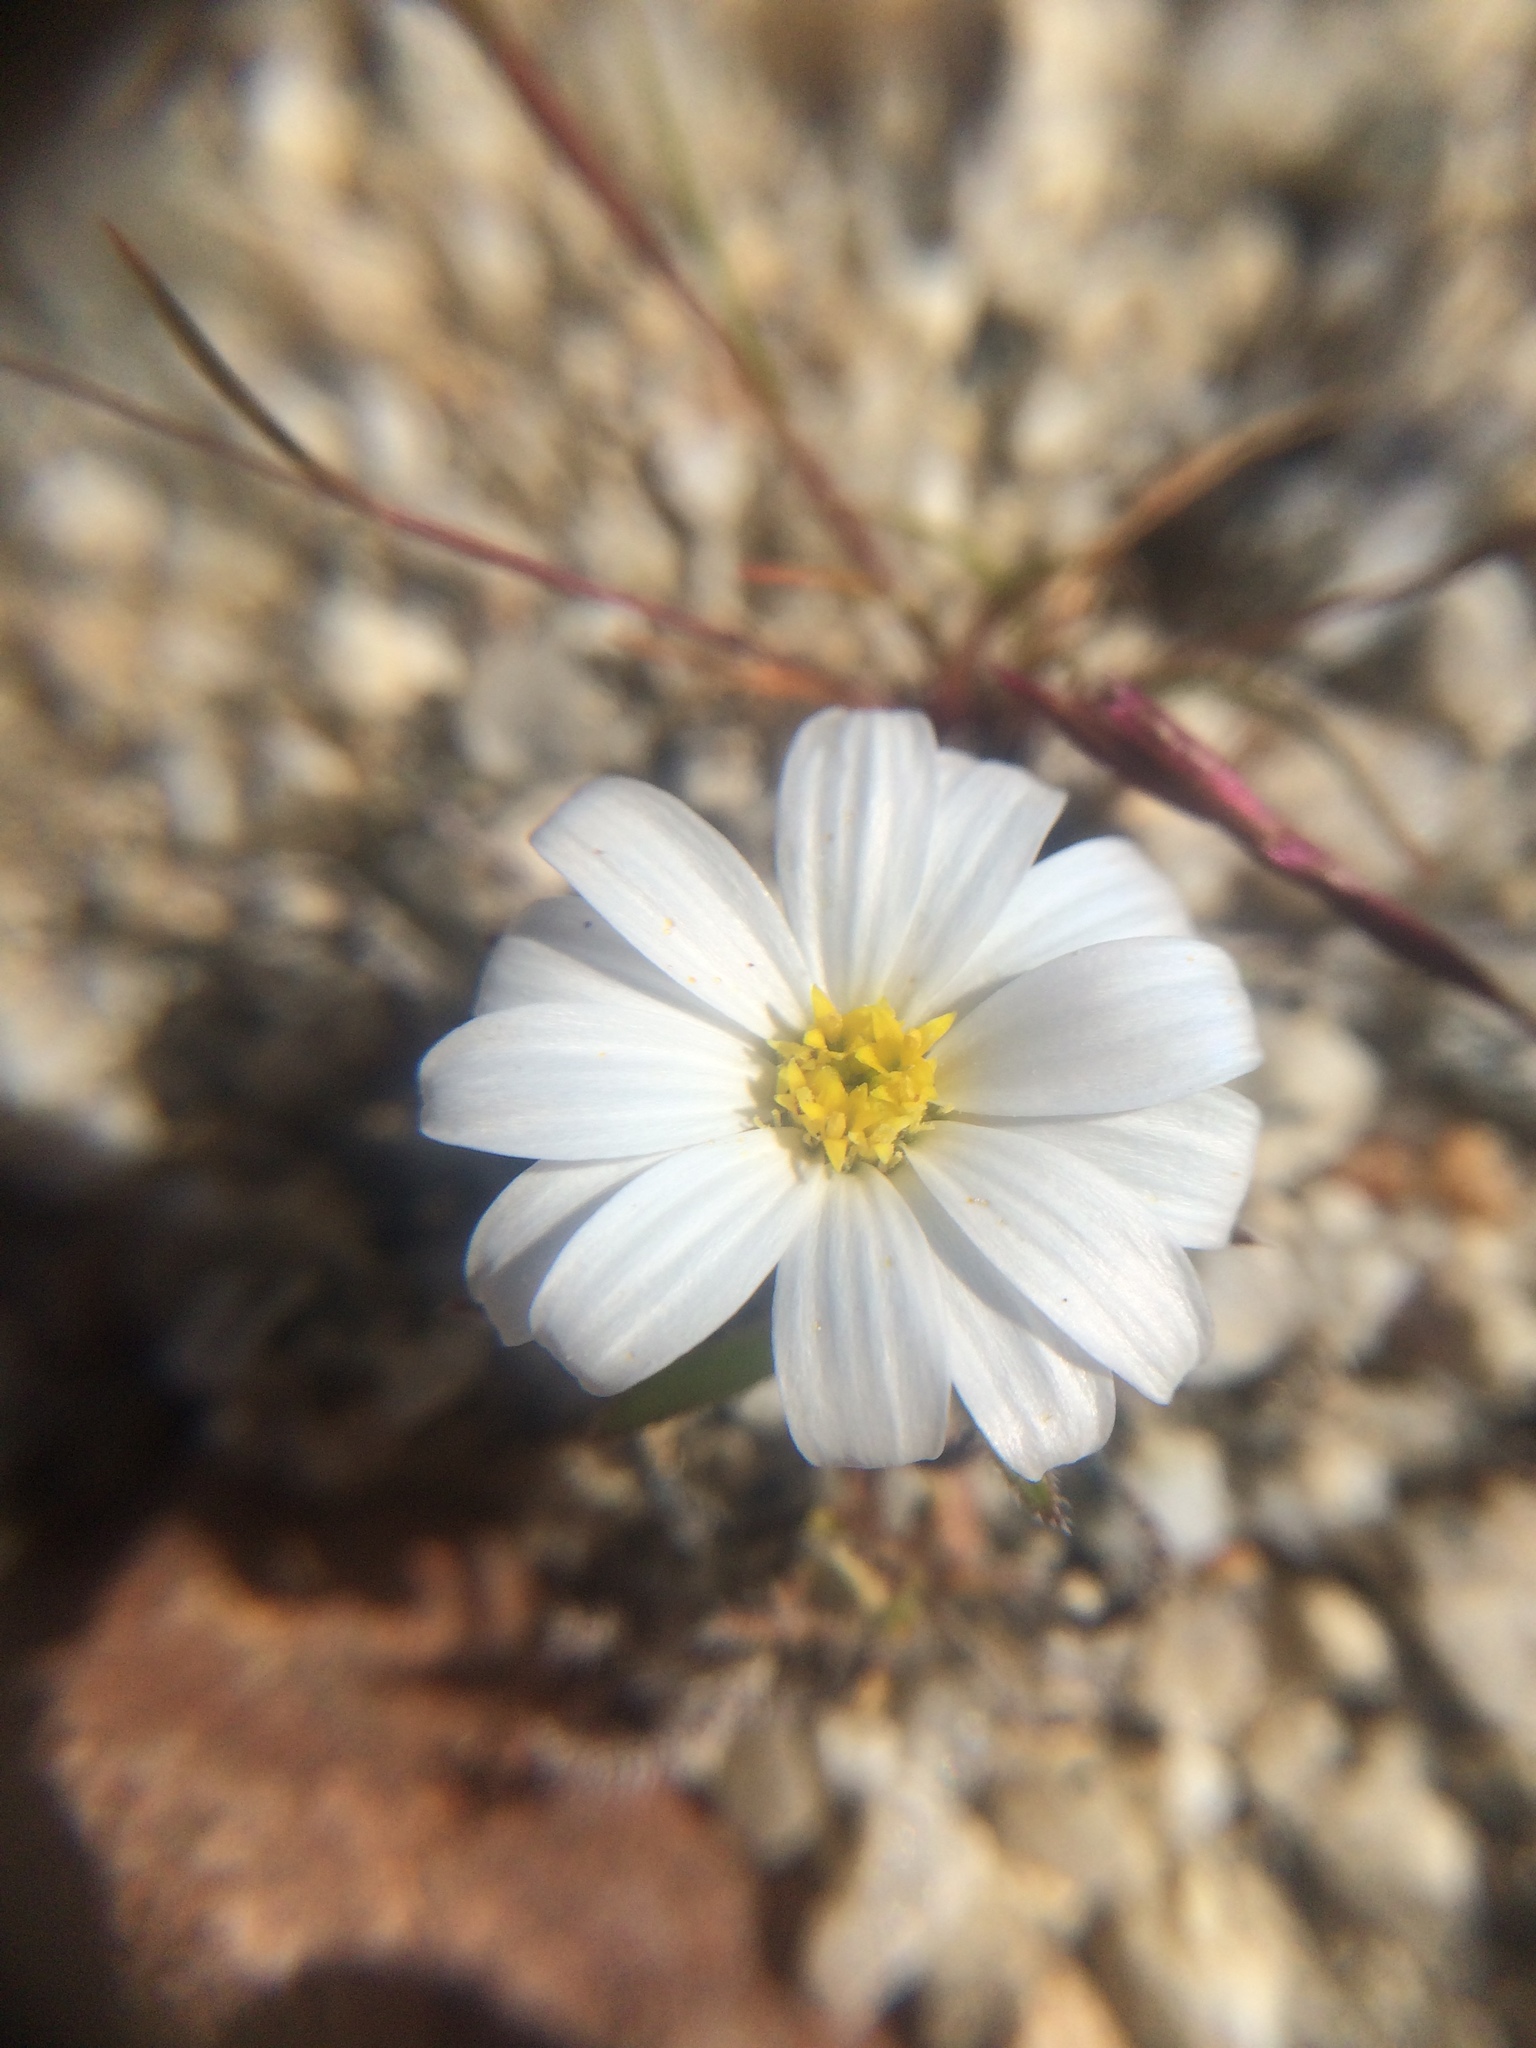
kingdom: Plantae
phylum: Tracheophyta
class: Magnoliopsida
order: Asterales
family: Asteraceae
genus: Monoptilon
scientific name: Monoptilon bellioides
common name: Bristly desertstar
